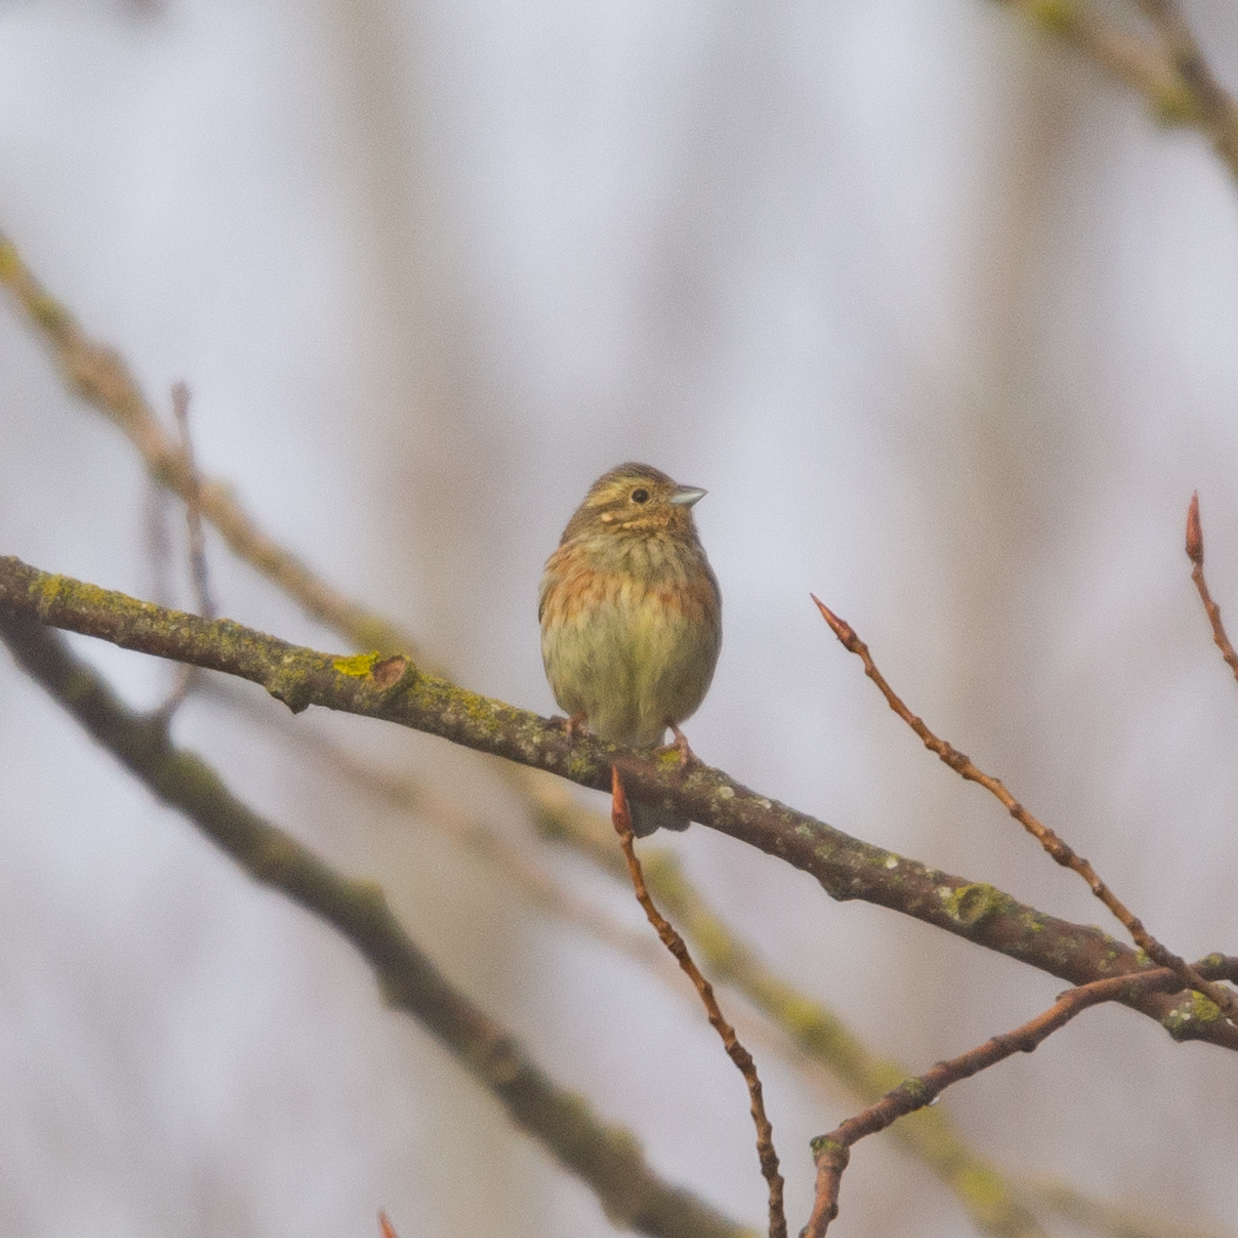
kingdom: Animalia
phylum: Chordata
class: Aves
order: Passeriformes
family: Emberizidae
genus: Emberiza
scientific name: Emberiza cirlus
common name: Cirl bunting
